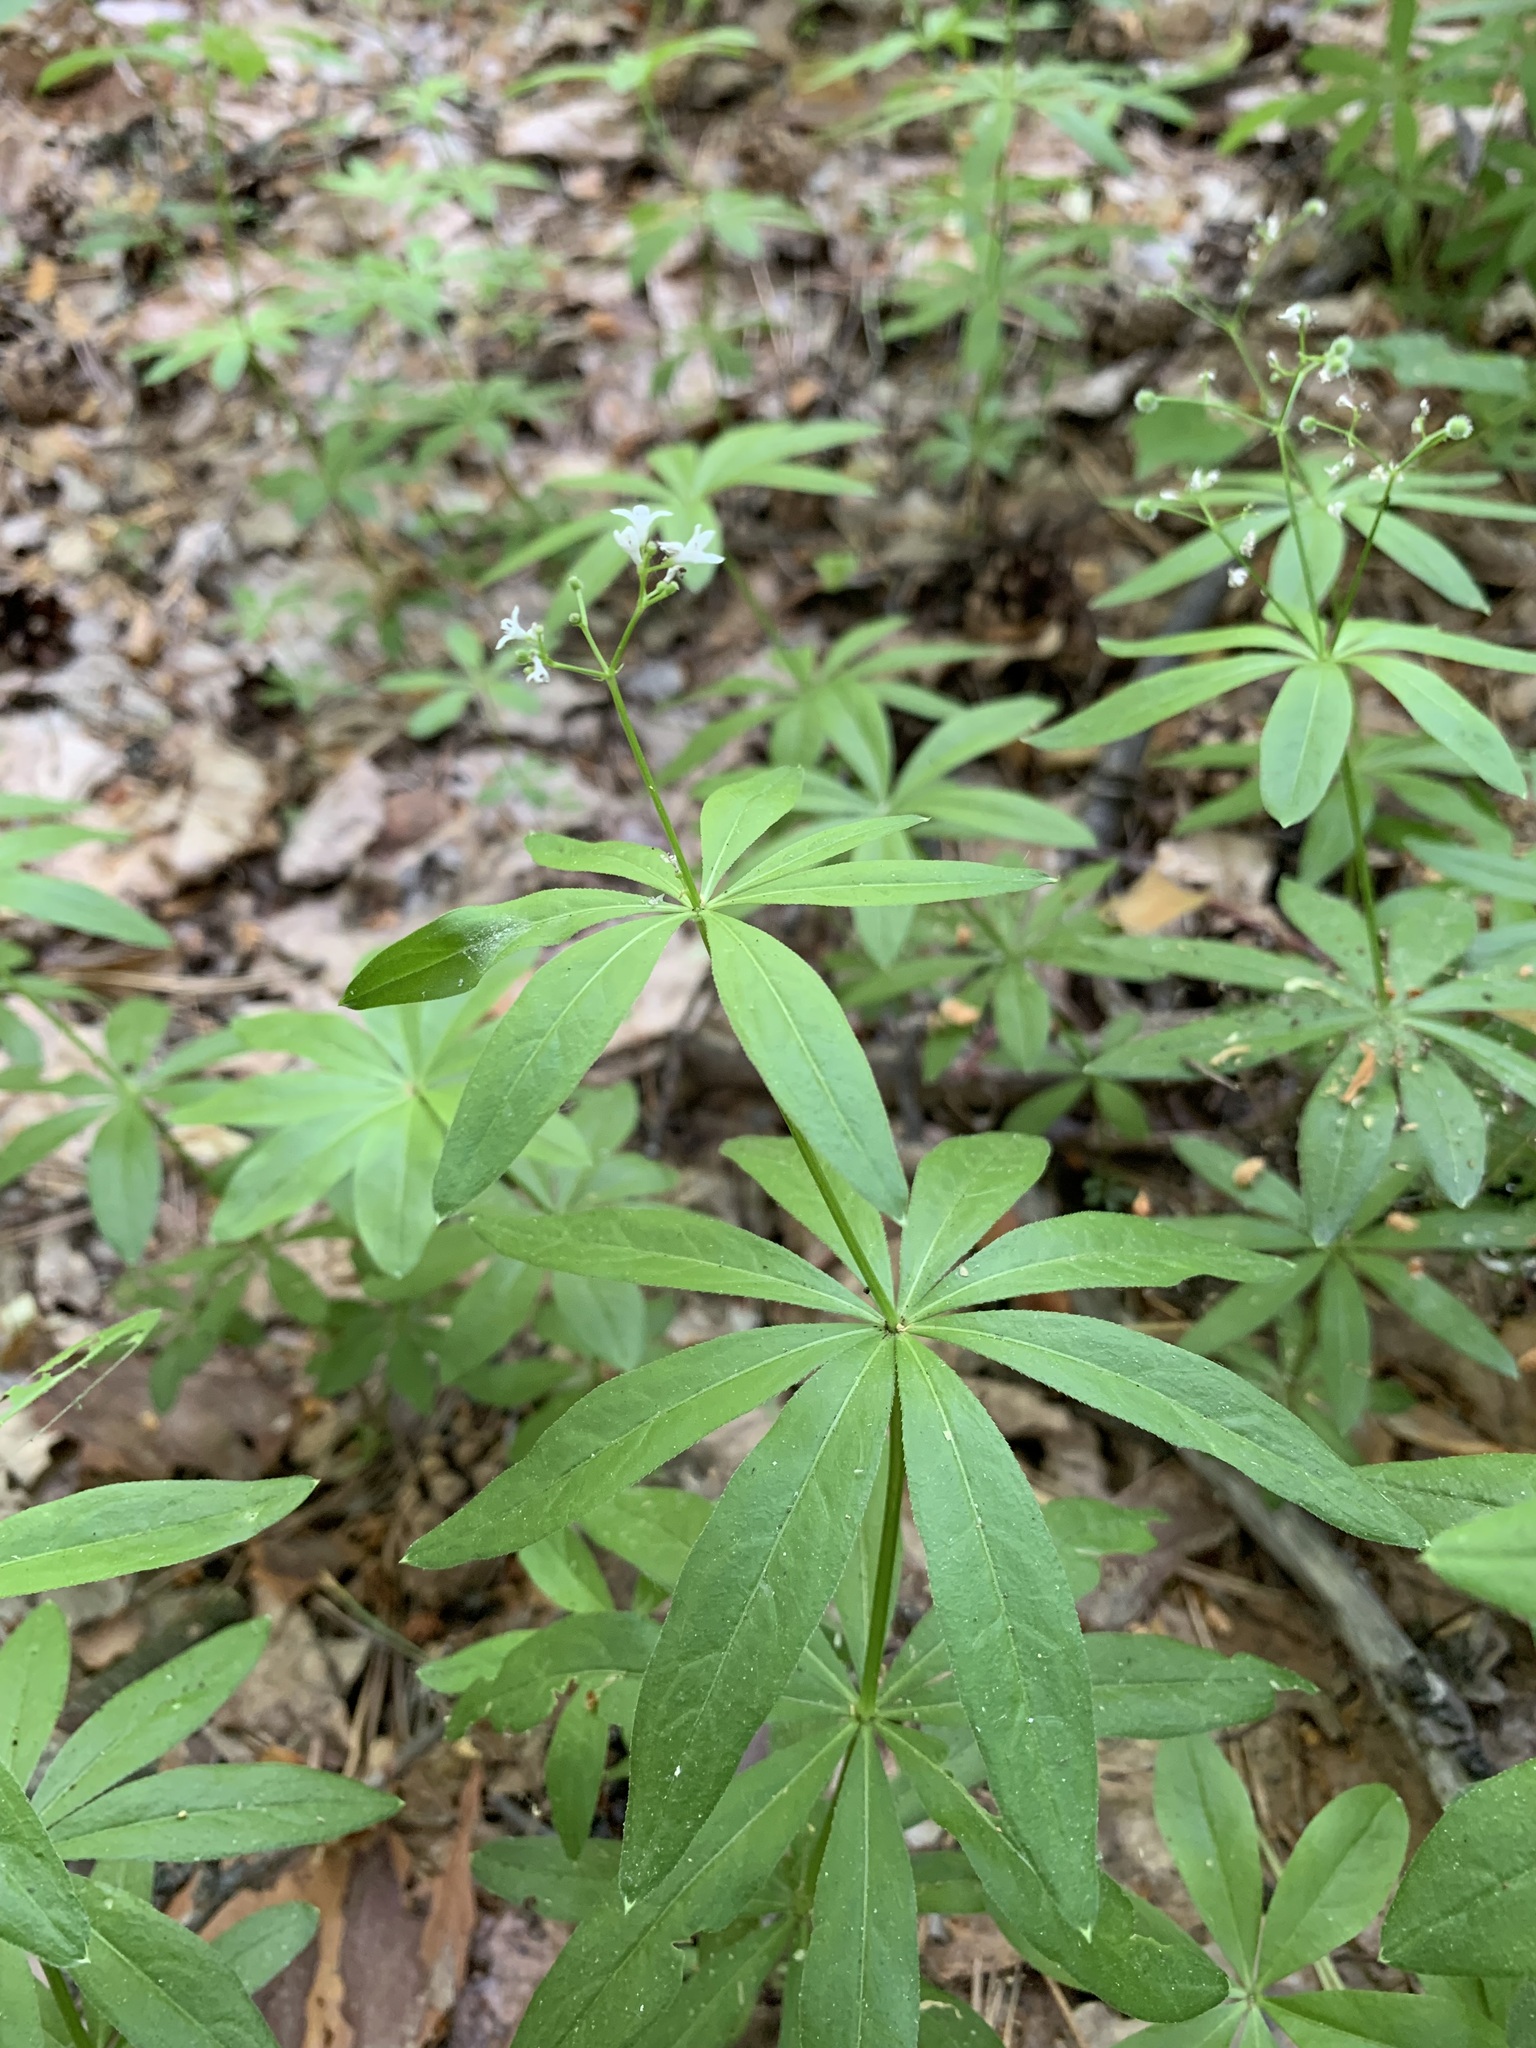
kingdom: Plantae
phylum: Tracheophyta
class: Magnoliopsida
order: Gentianales
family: Rubiaceae
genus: Galium
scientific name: Galium odoratum
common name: Sweet woodruff
